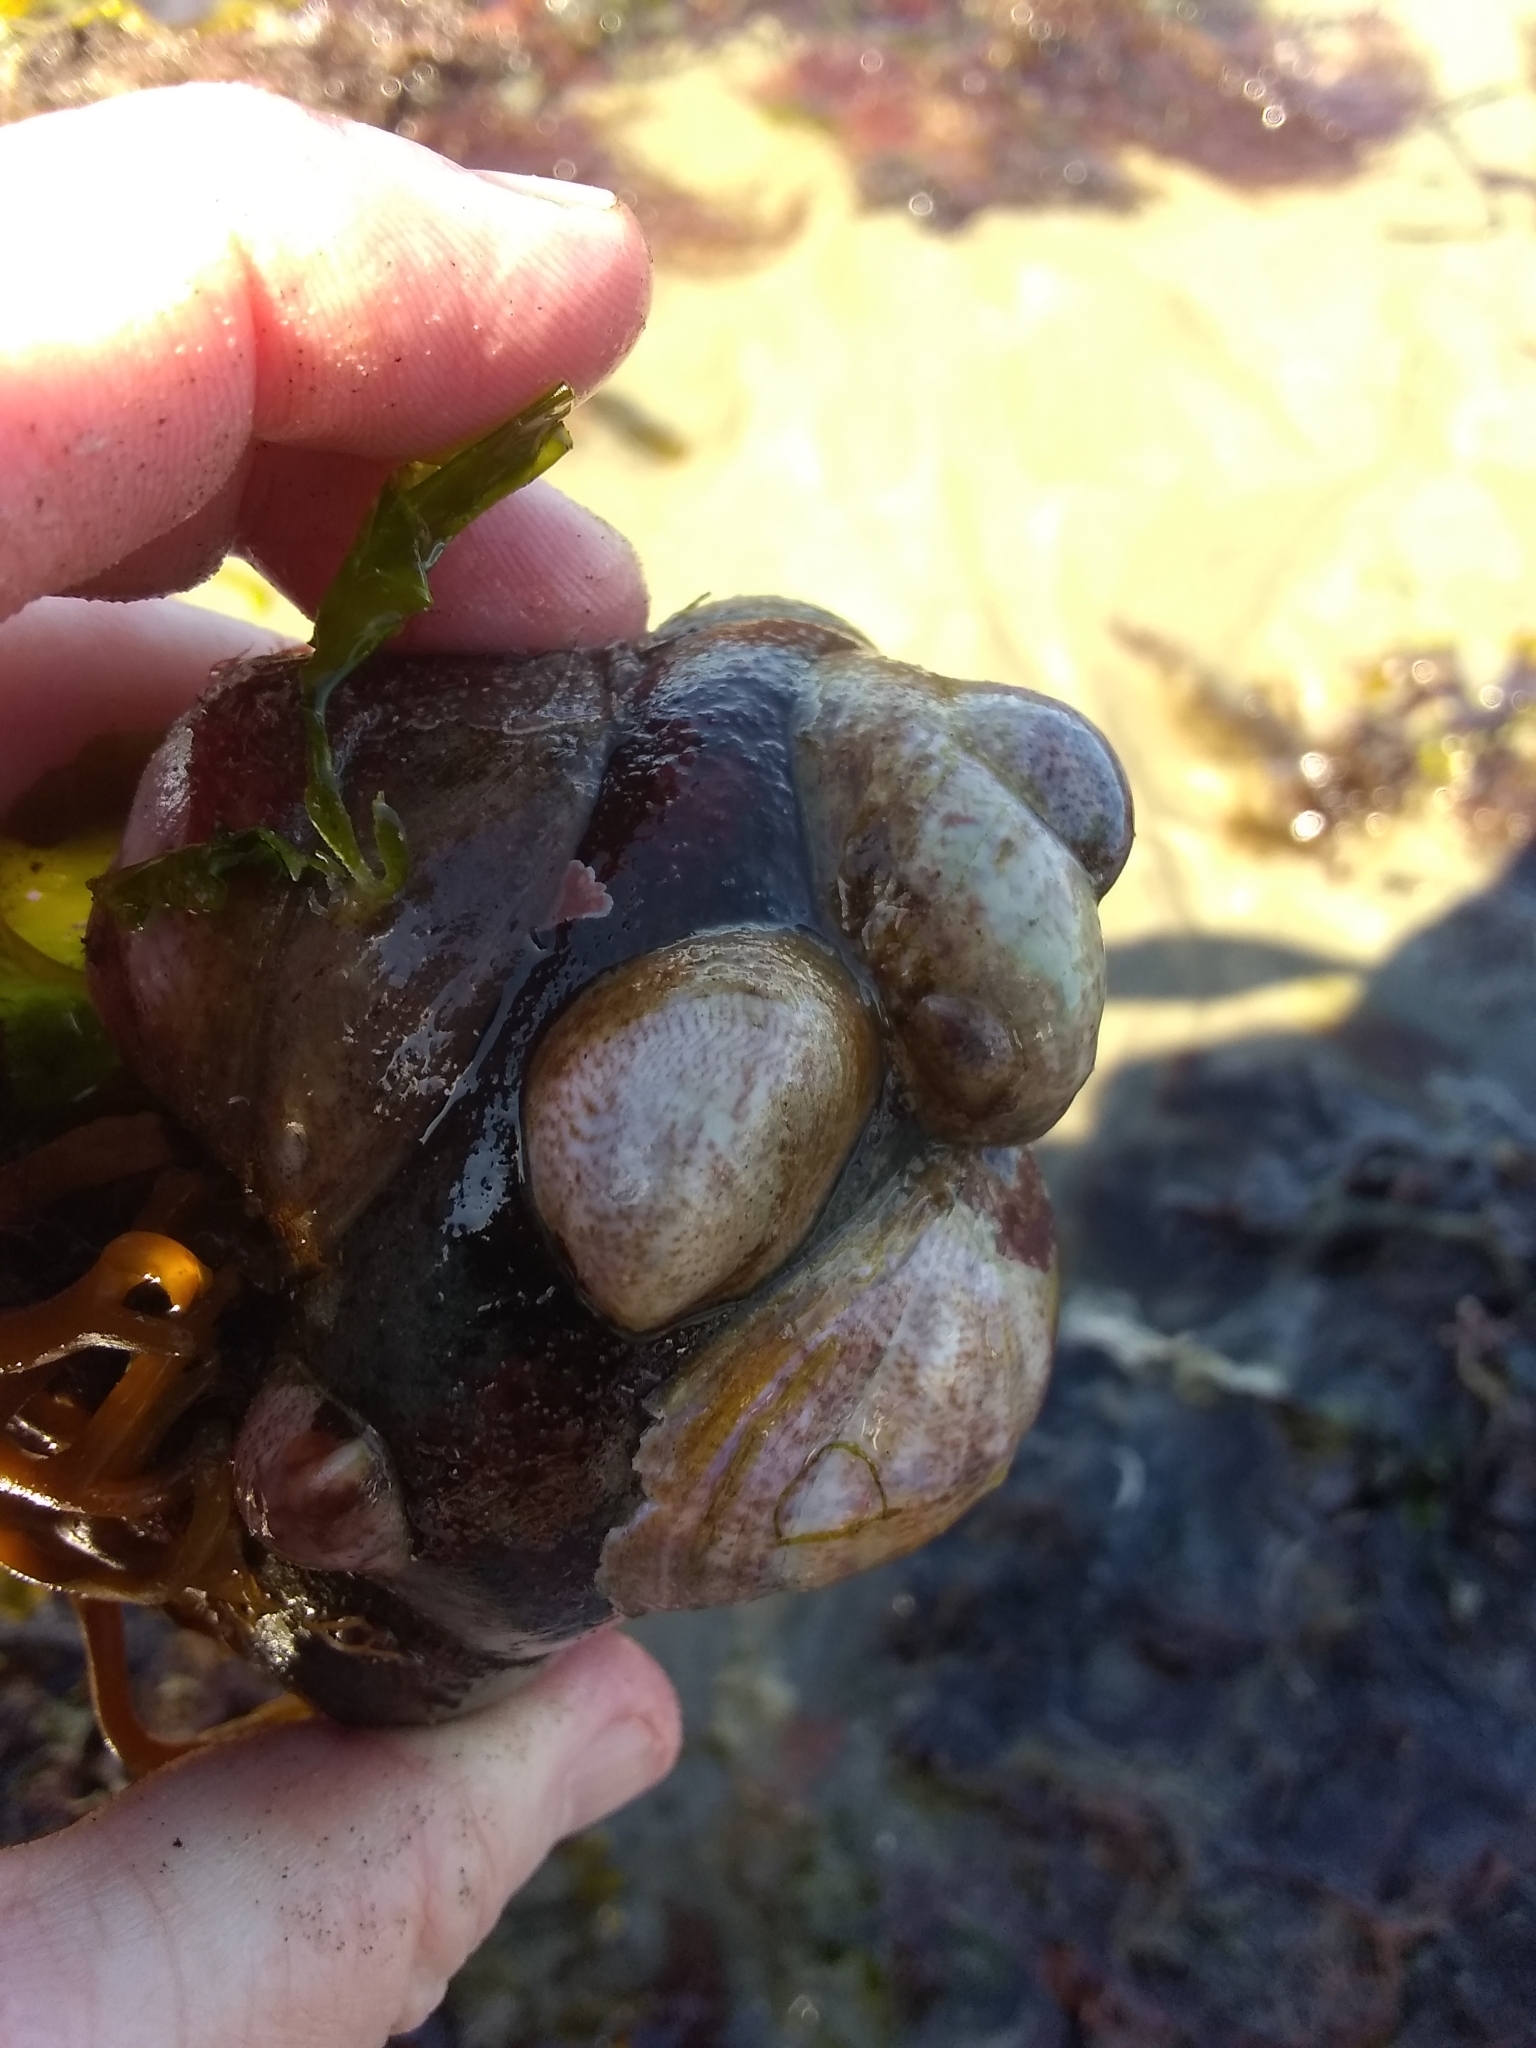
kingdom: Animalia
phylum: Mollusca
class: Gastropoda
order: Littorinimorpha
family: Calyptraeidae
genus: Crepidula
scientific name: Crepidula fornicata
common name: Slipper limpet
